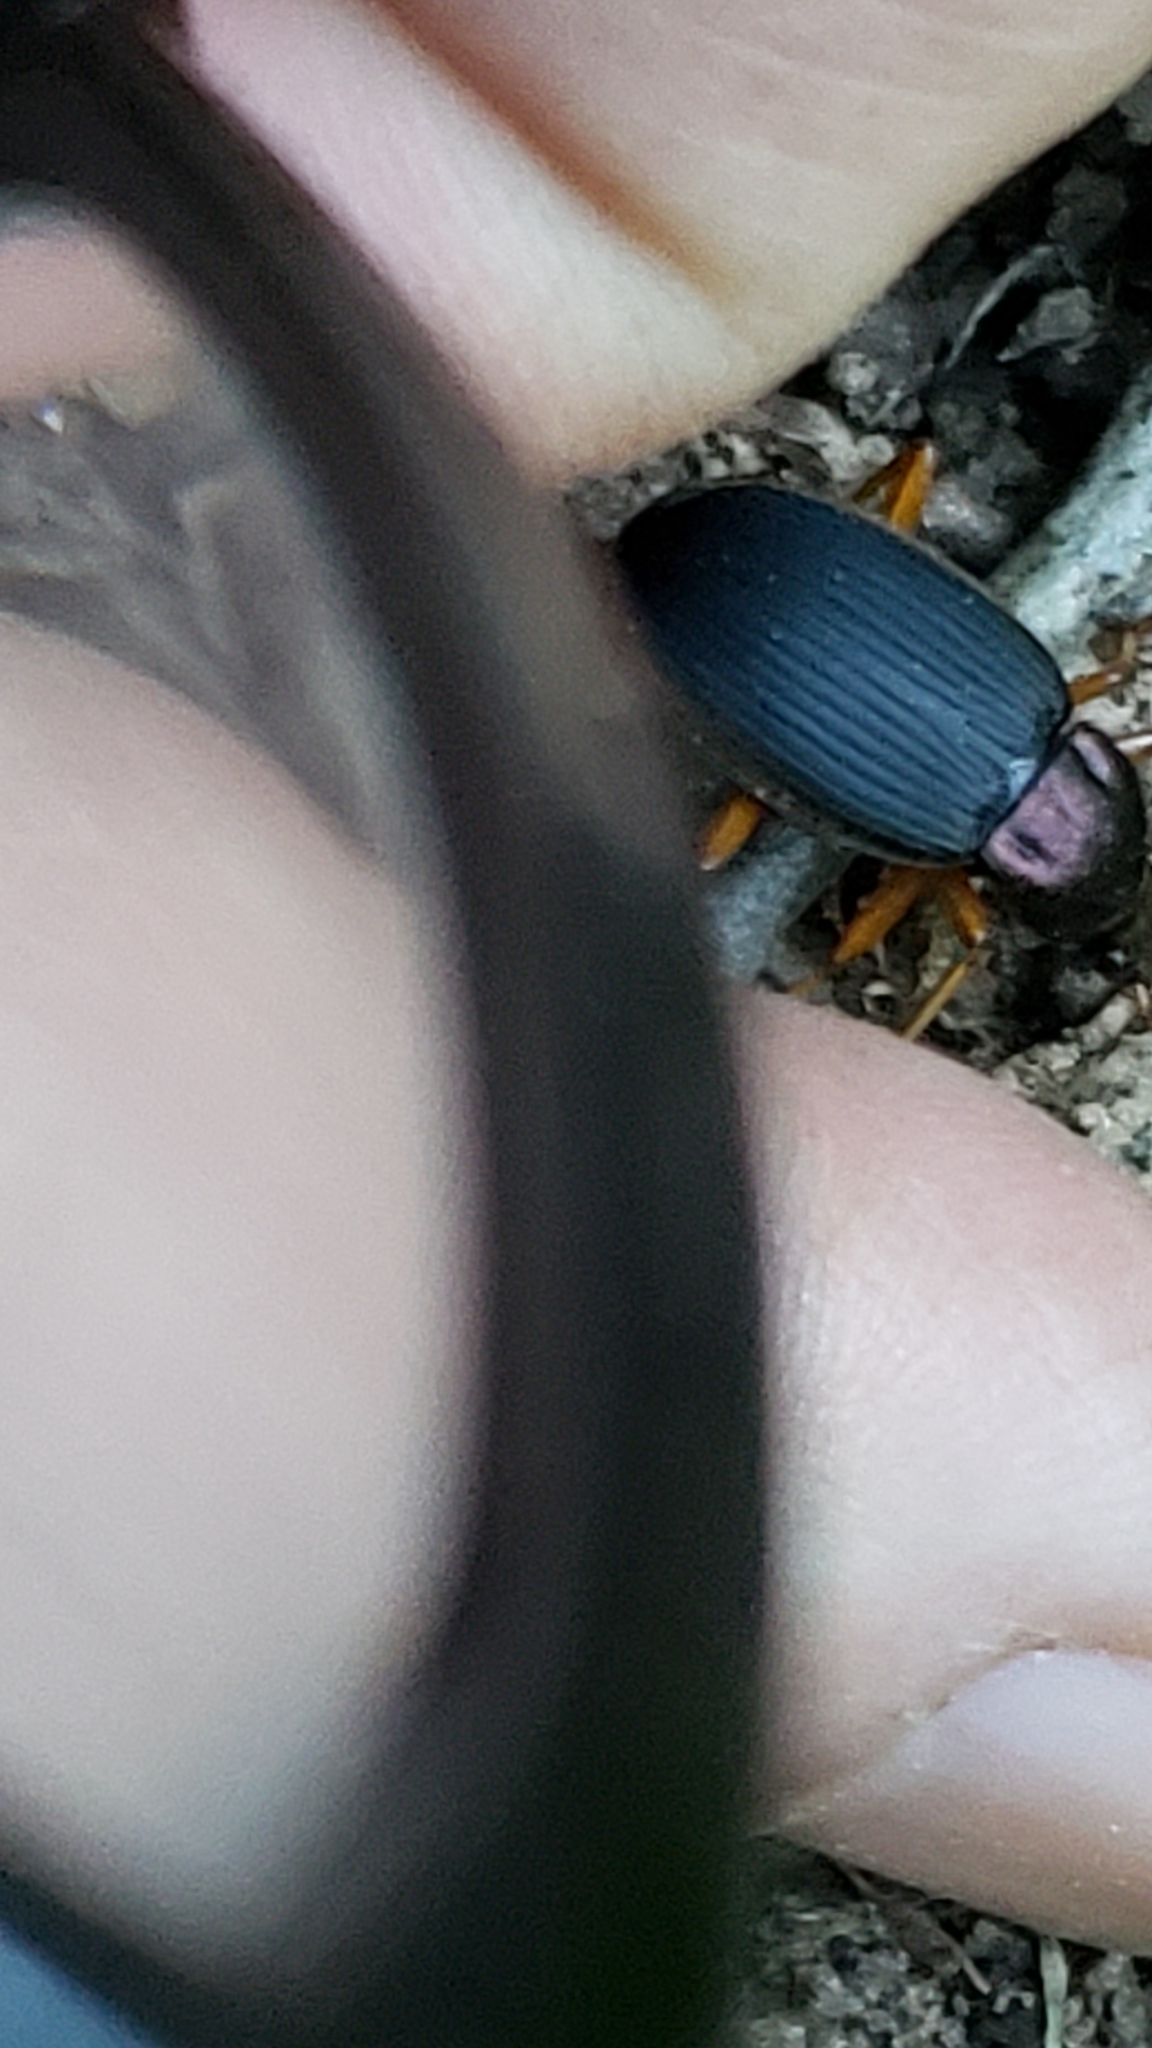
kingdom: Animalia
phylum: Arthropoda
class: Insecta
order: Coleoptera
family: Carabidae
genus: Chlaenius
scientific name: Chlaenius aestivus
